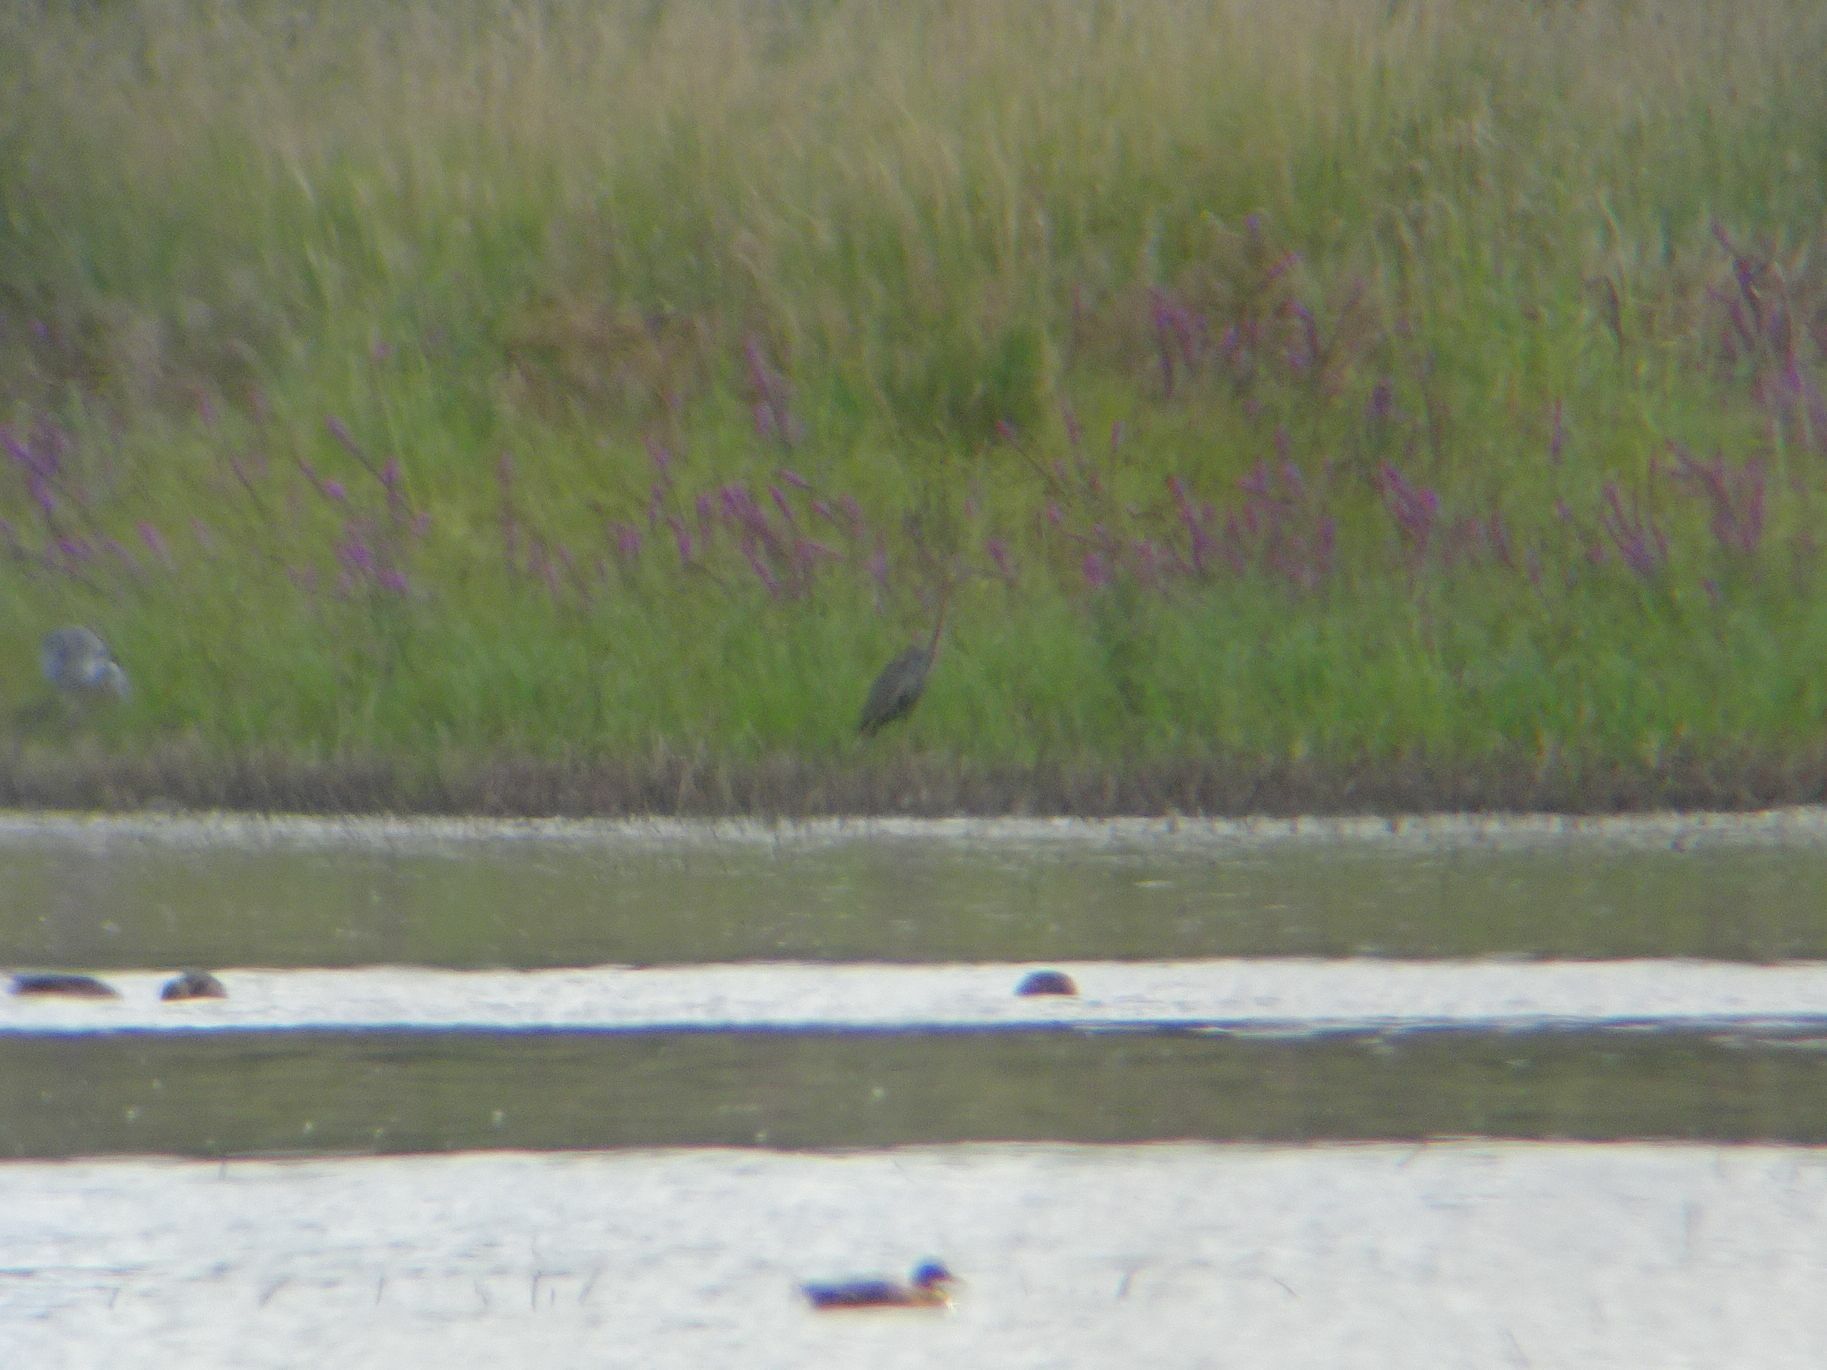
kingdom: Animalia
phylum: Chordata
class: Aves
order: Pelecaniformes
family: Ardeidae
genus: Ardea
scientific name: Ardea purpurea
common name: Purple heron
